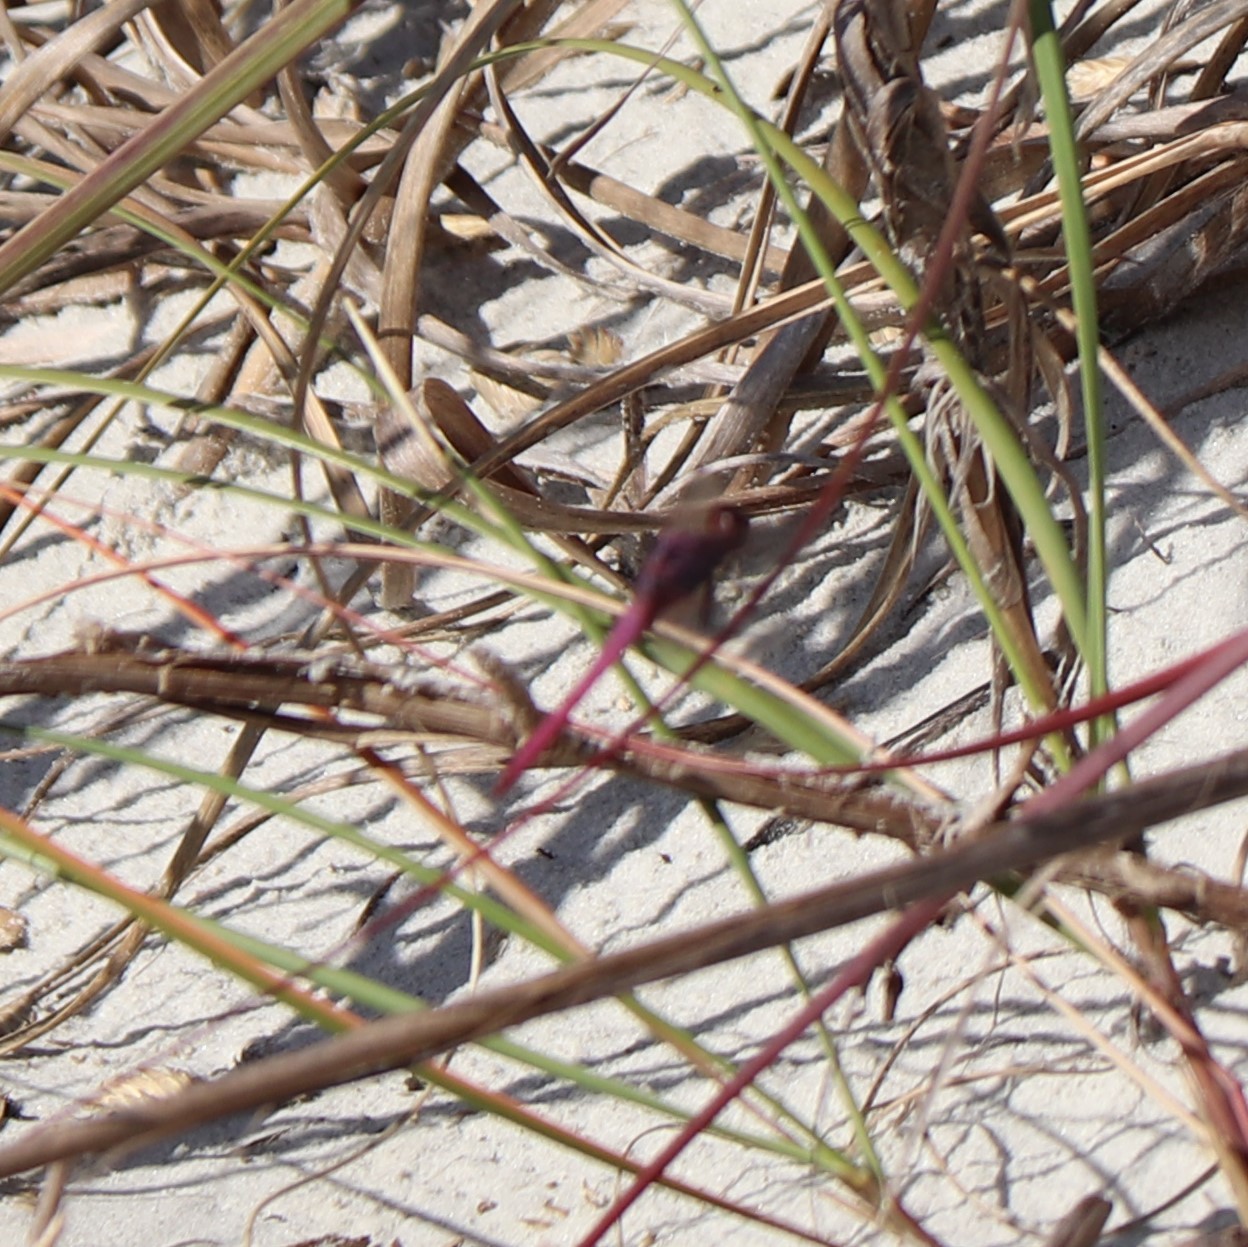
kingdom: Animalia
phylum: Arthropoda
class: Insecta
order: Odonata
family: Libellulidae
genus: Orthemis
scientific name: Orthemis ferruginea
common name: Roseate skimmer
